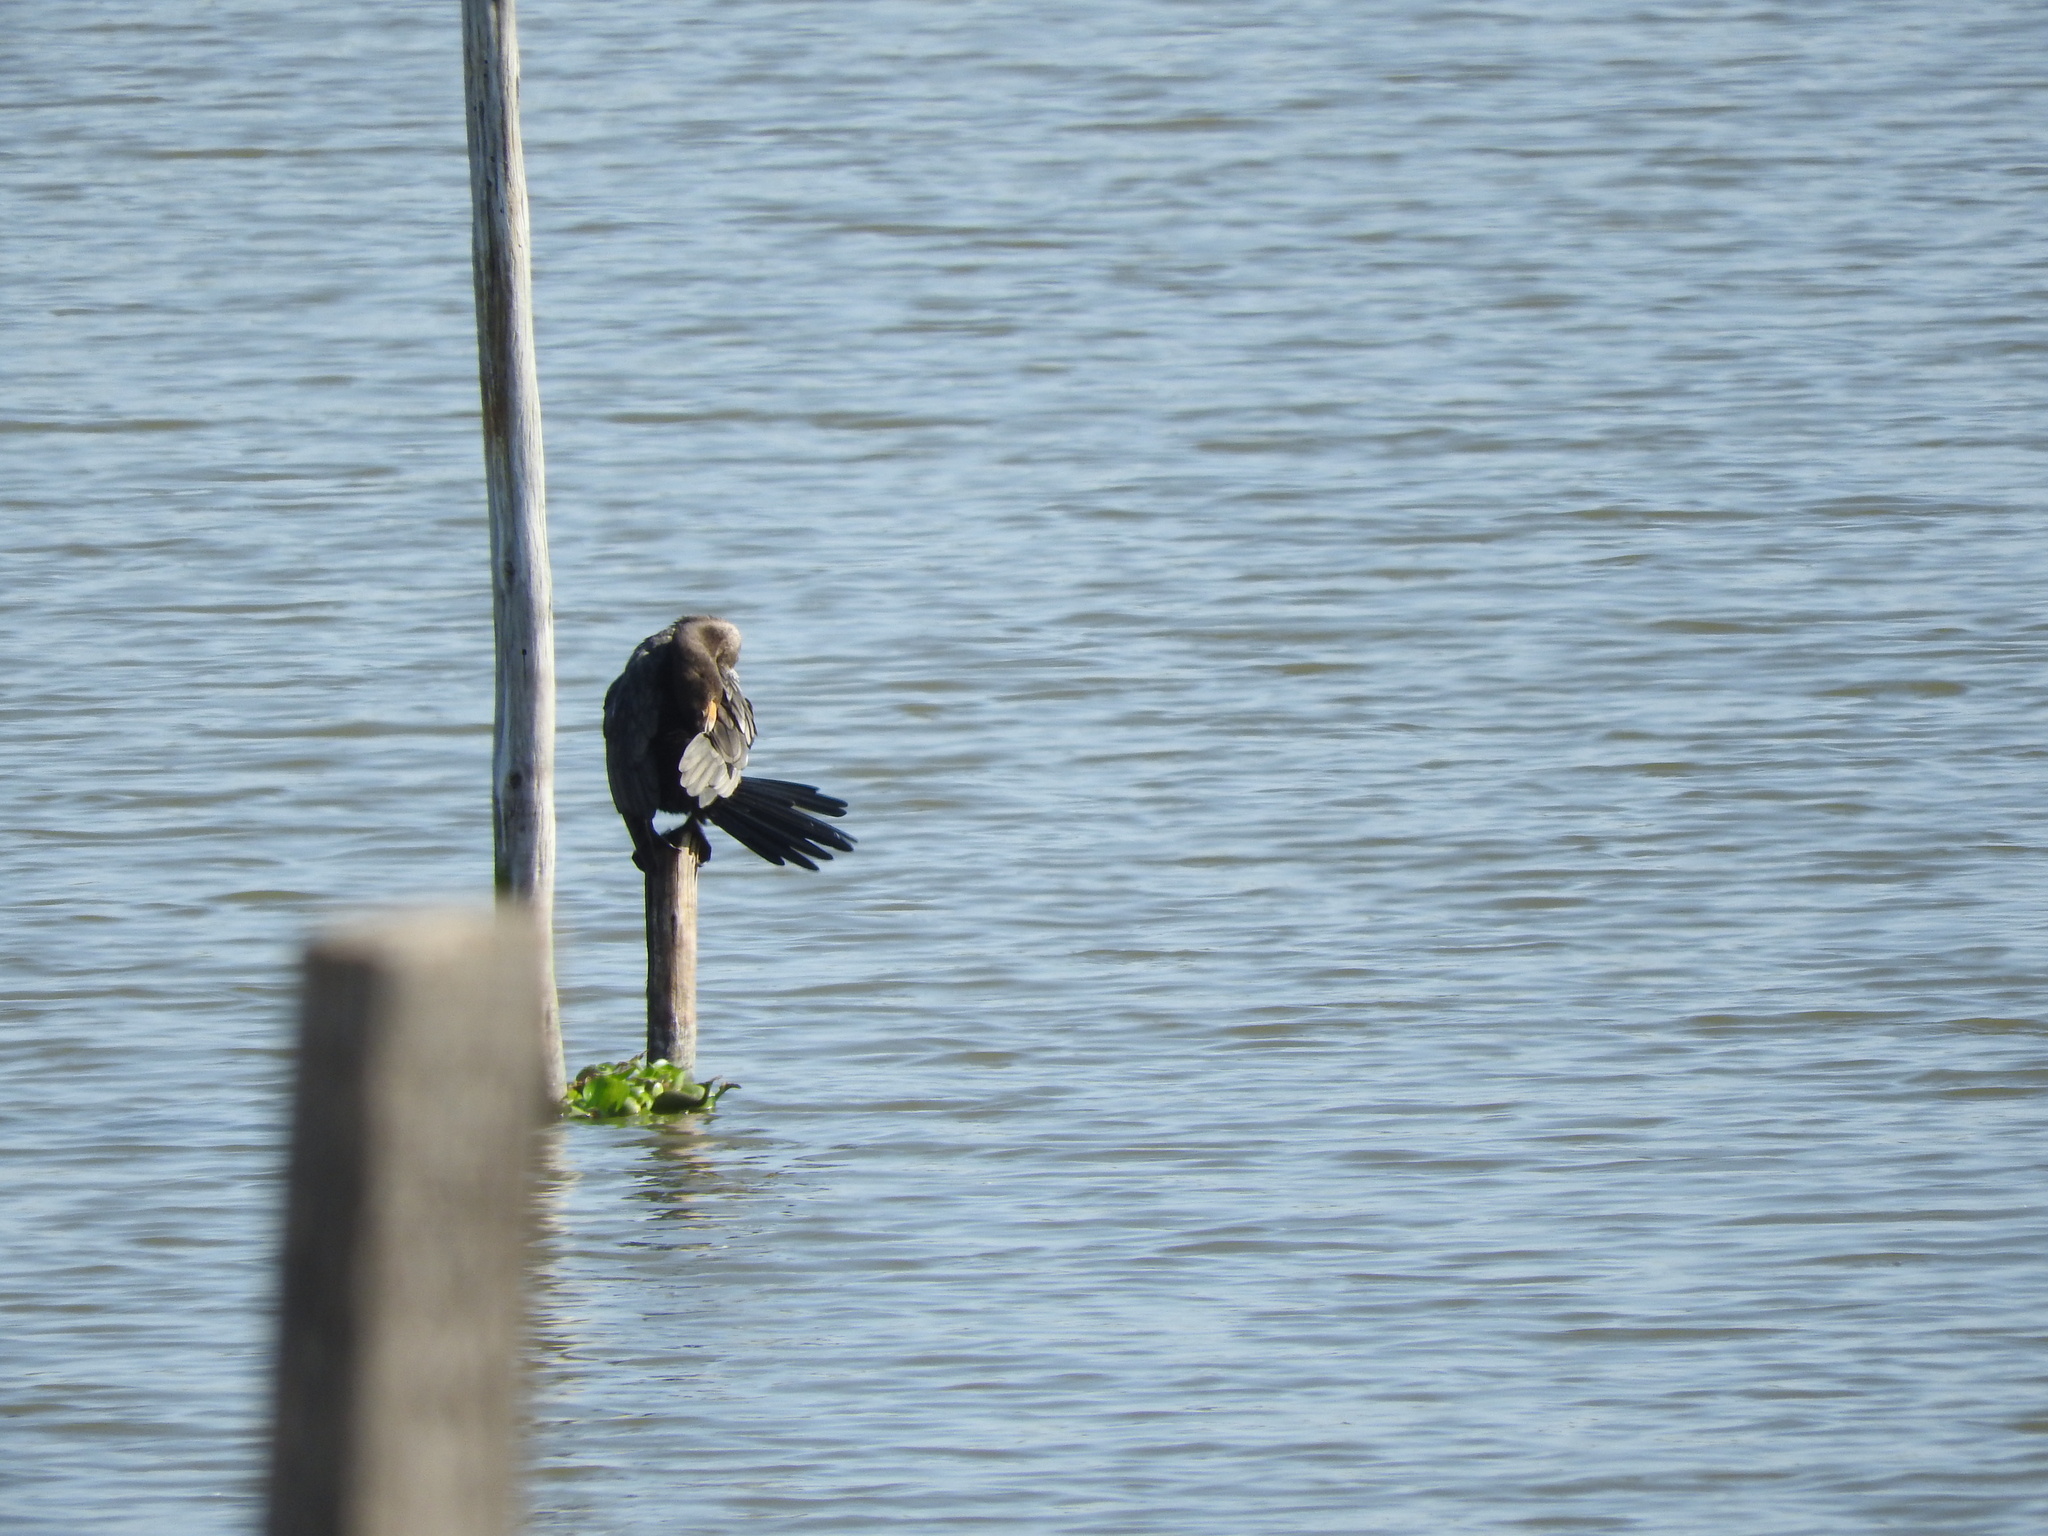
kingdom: Animalia
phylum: Chordata
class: Aves
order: Suliformes
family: Phalacrocoracidae
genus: Phalacrocorax
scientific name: Phalacrocorax brasilianus
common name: Neotropic cormorant
